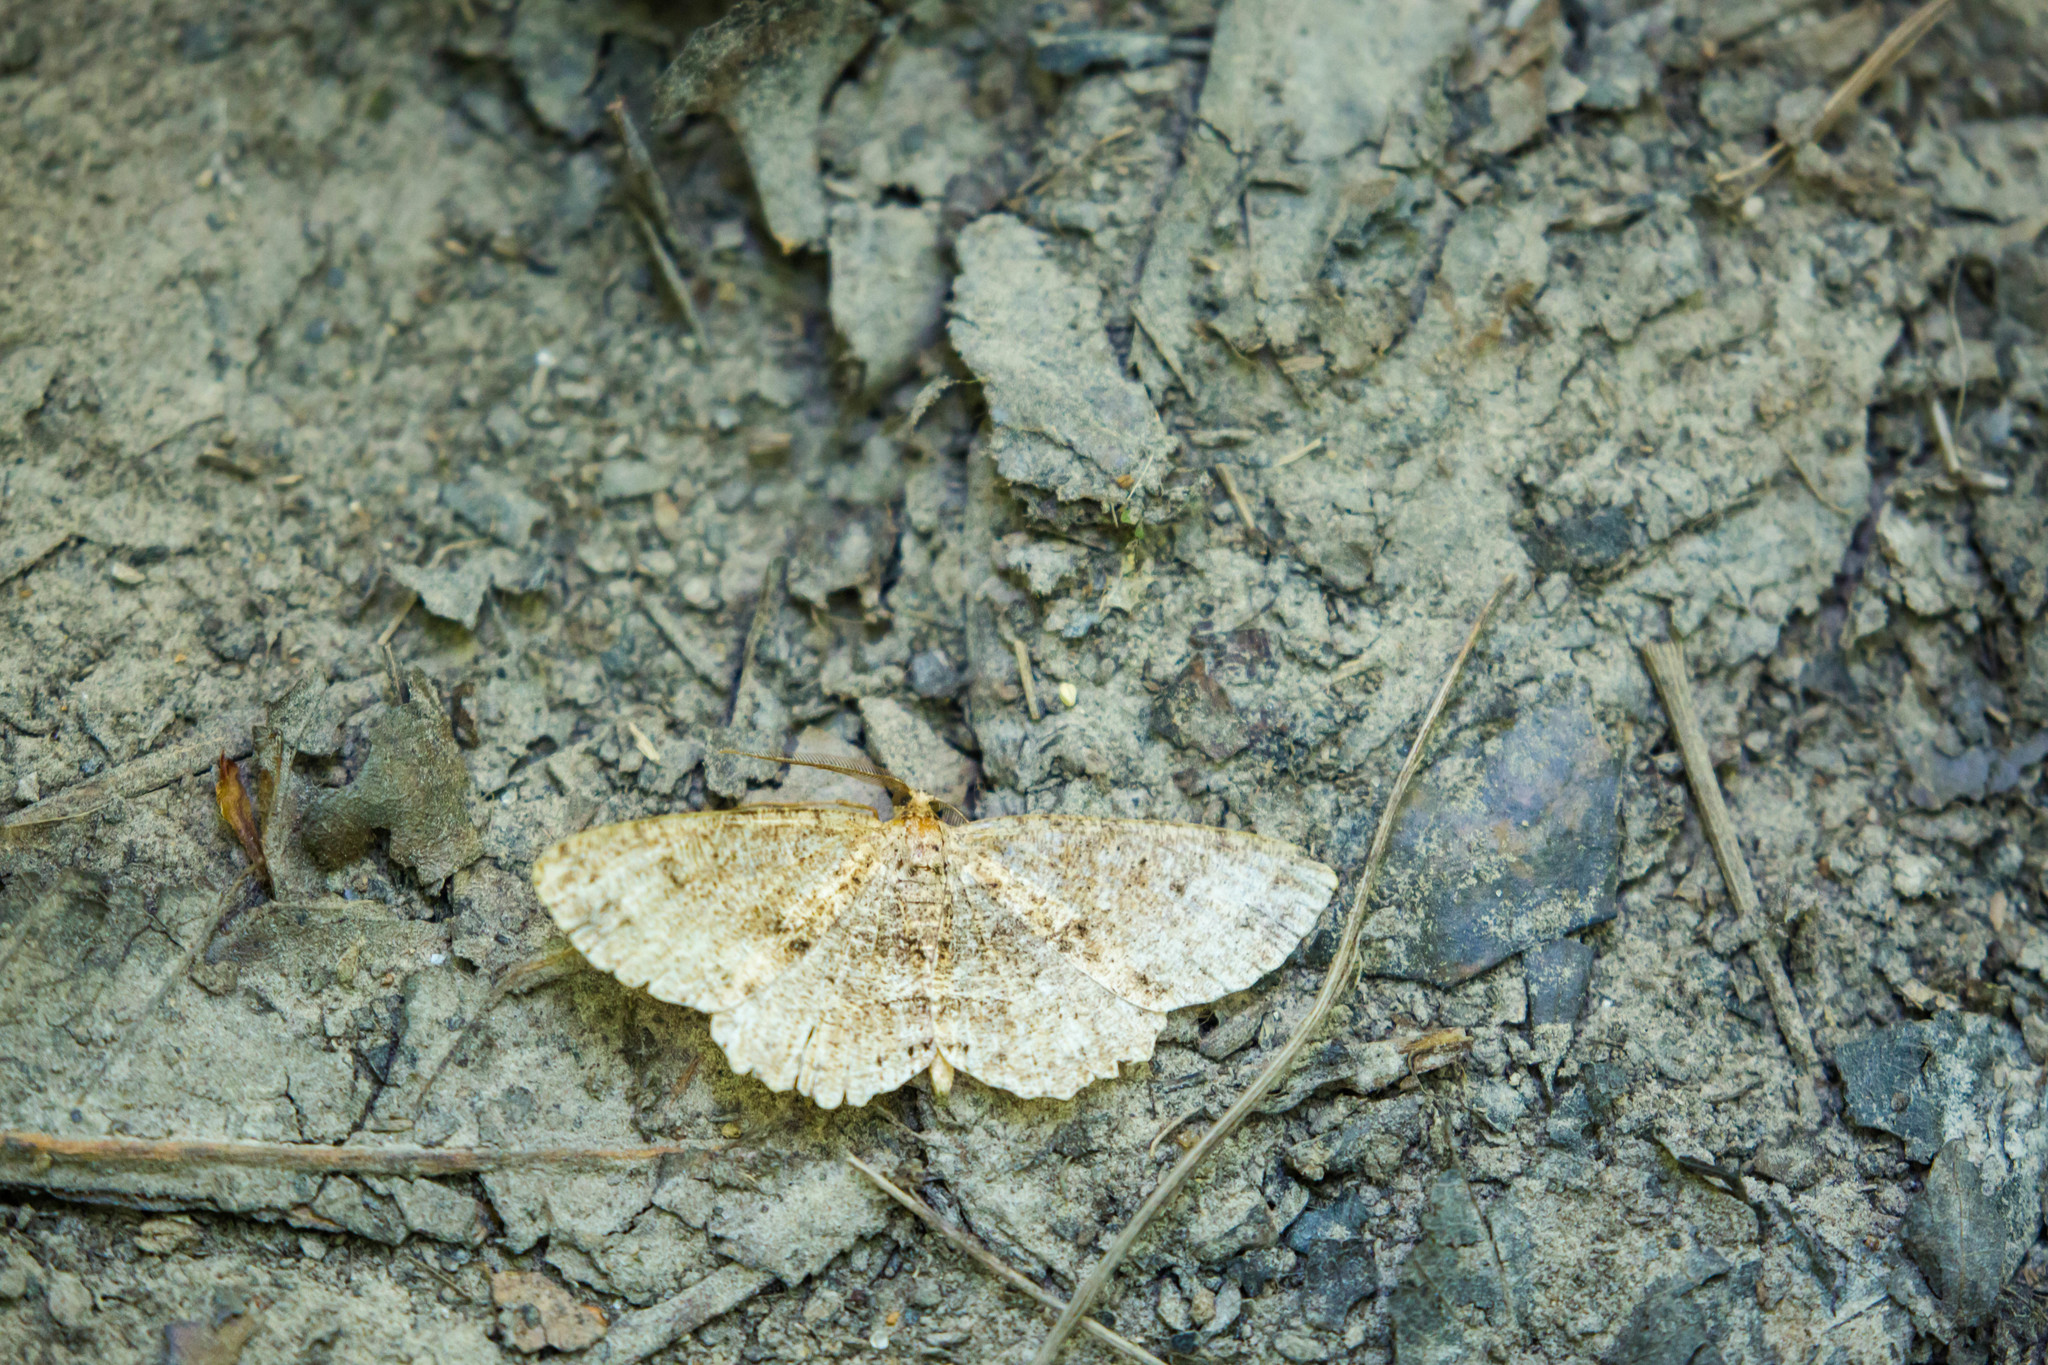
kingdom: Animalia
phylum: Arthropoda
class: Insecta
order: Lepidoptera
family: Geometridae
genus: Melanolophia
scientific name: Melanolophia canadaria
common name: Canadian melanolophia
